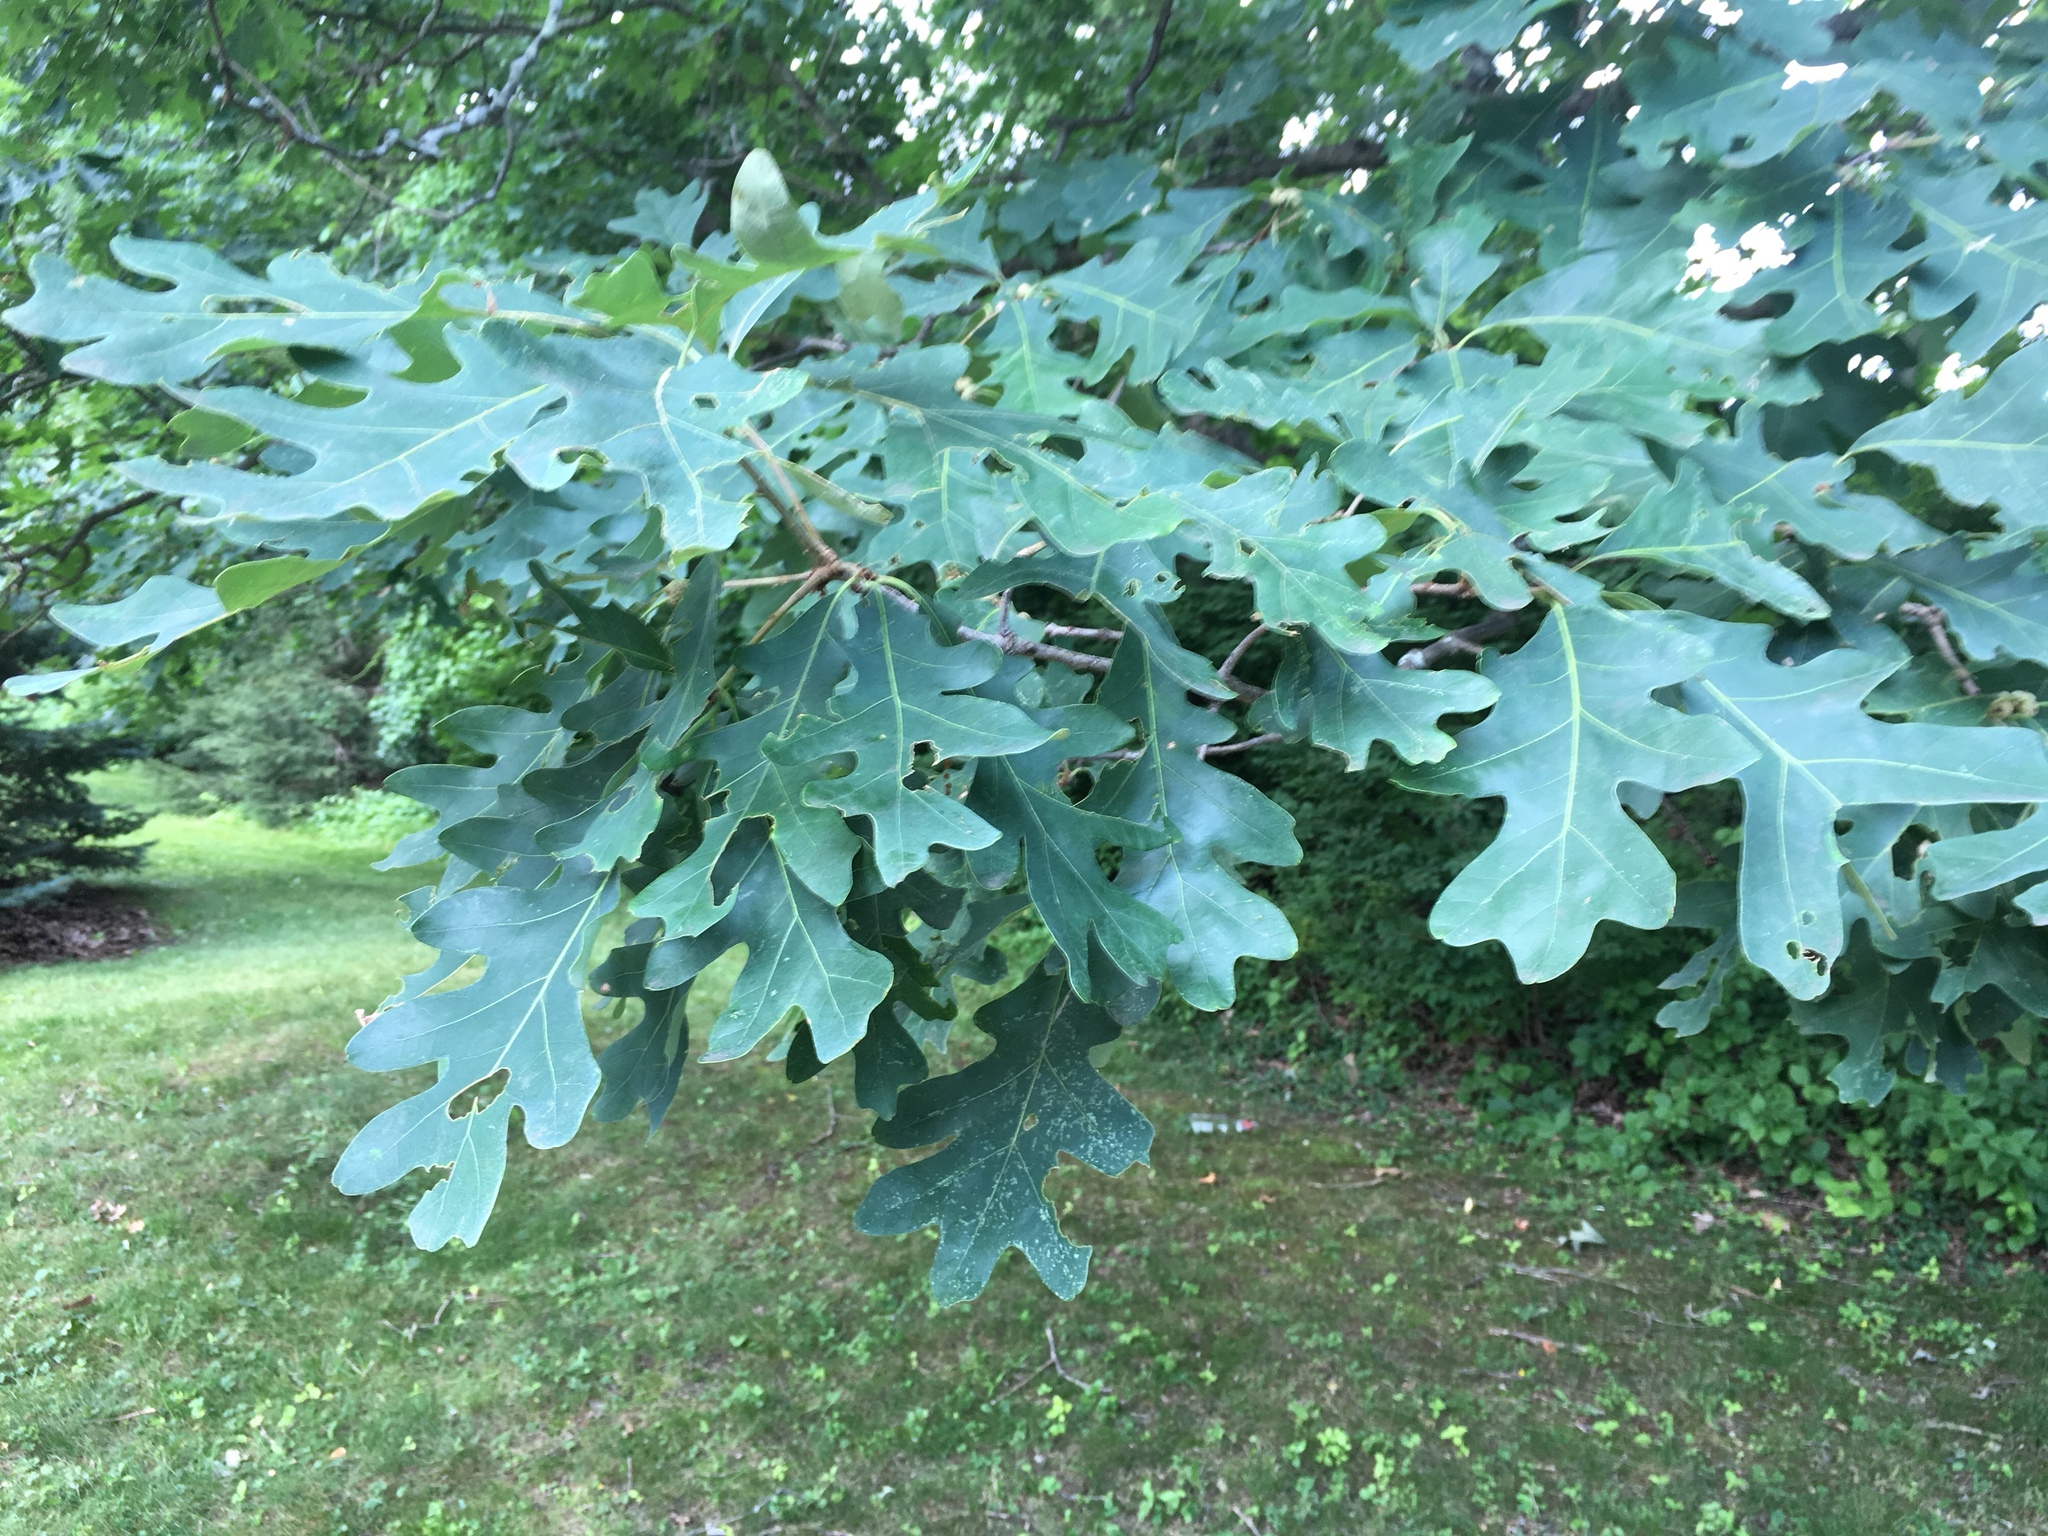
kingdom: Plantae
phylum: Tracheophyta
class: Magnoliopsida
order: Fagales
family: Fagaceae
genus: Quercus
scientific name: Quercus alba
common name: White oak
